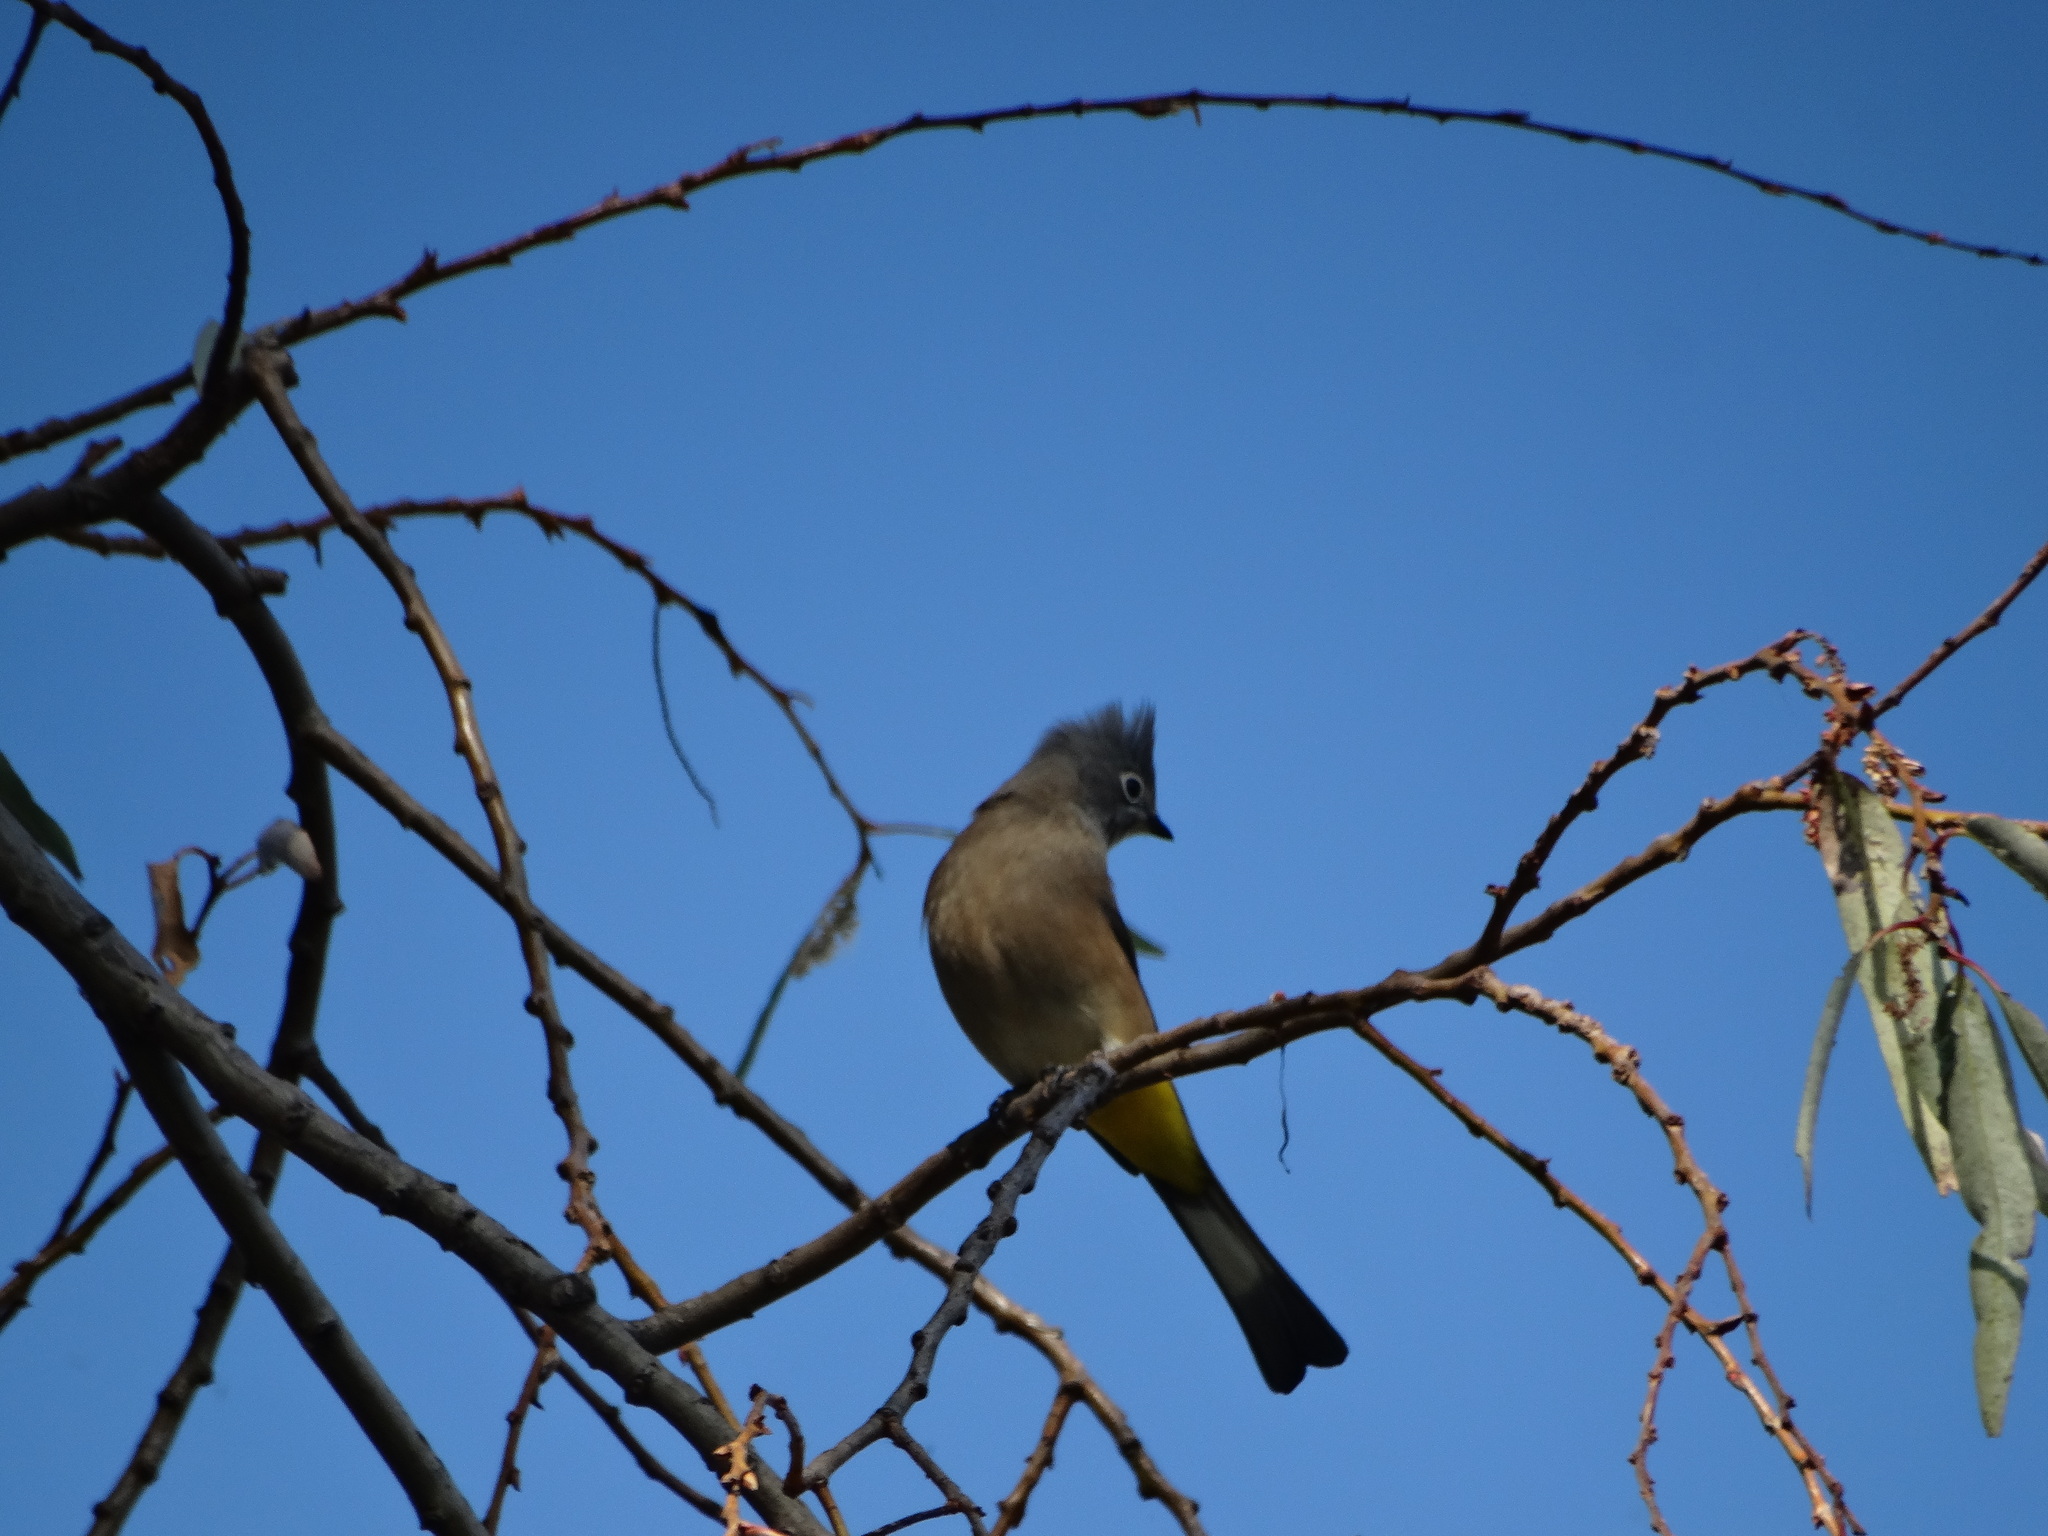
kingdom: Animalia
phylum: Chordata
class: Aves
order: Passeriformes
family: Ptilogonatidae
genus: Ptilogonys
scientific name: Ptilogonys cinereus
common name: Gray silky-flycatcher
